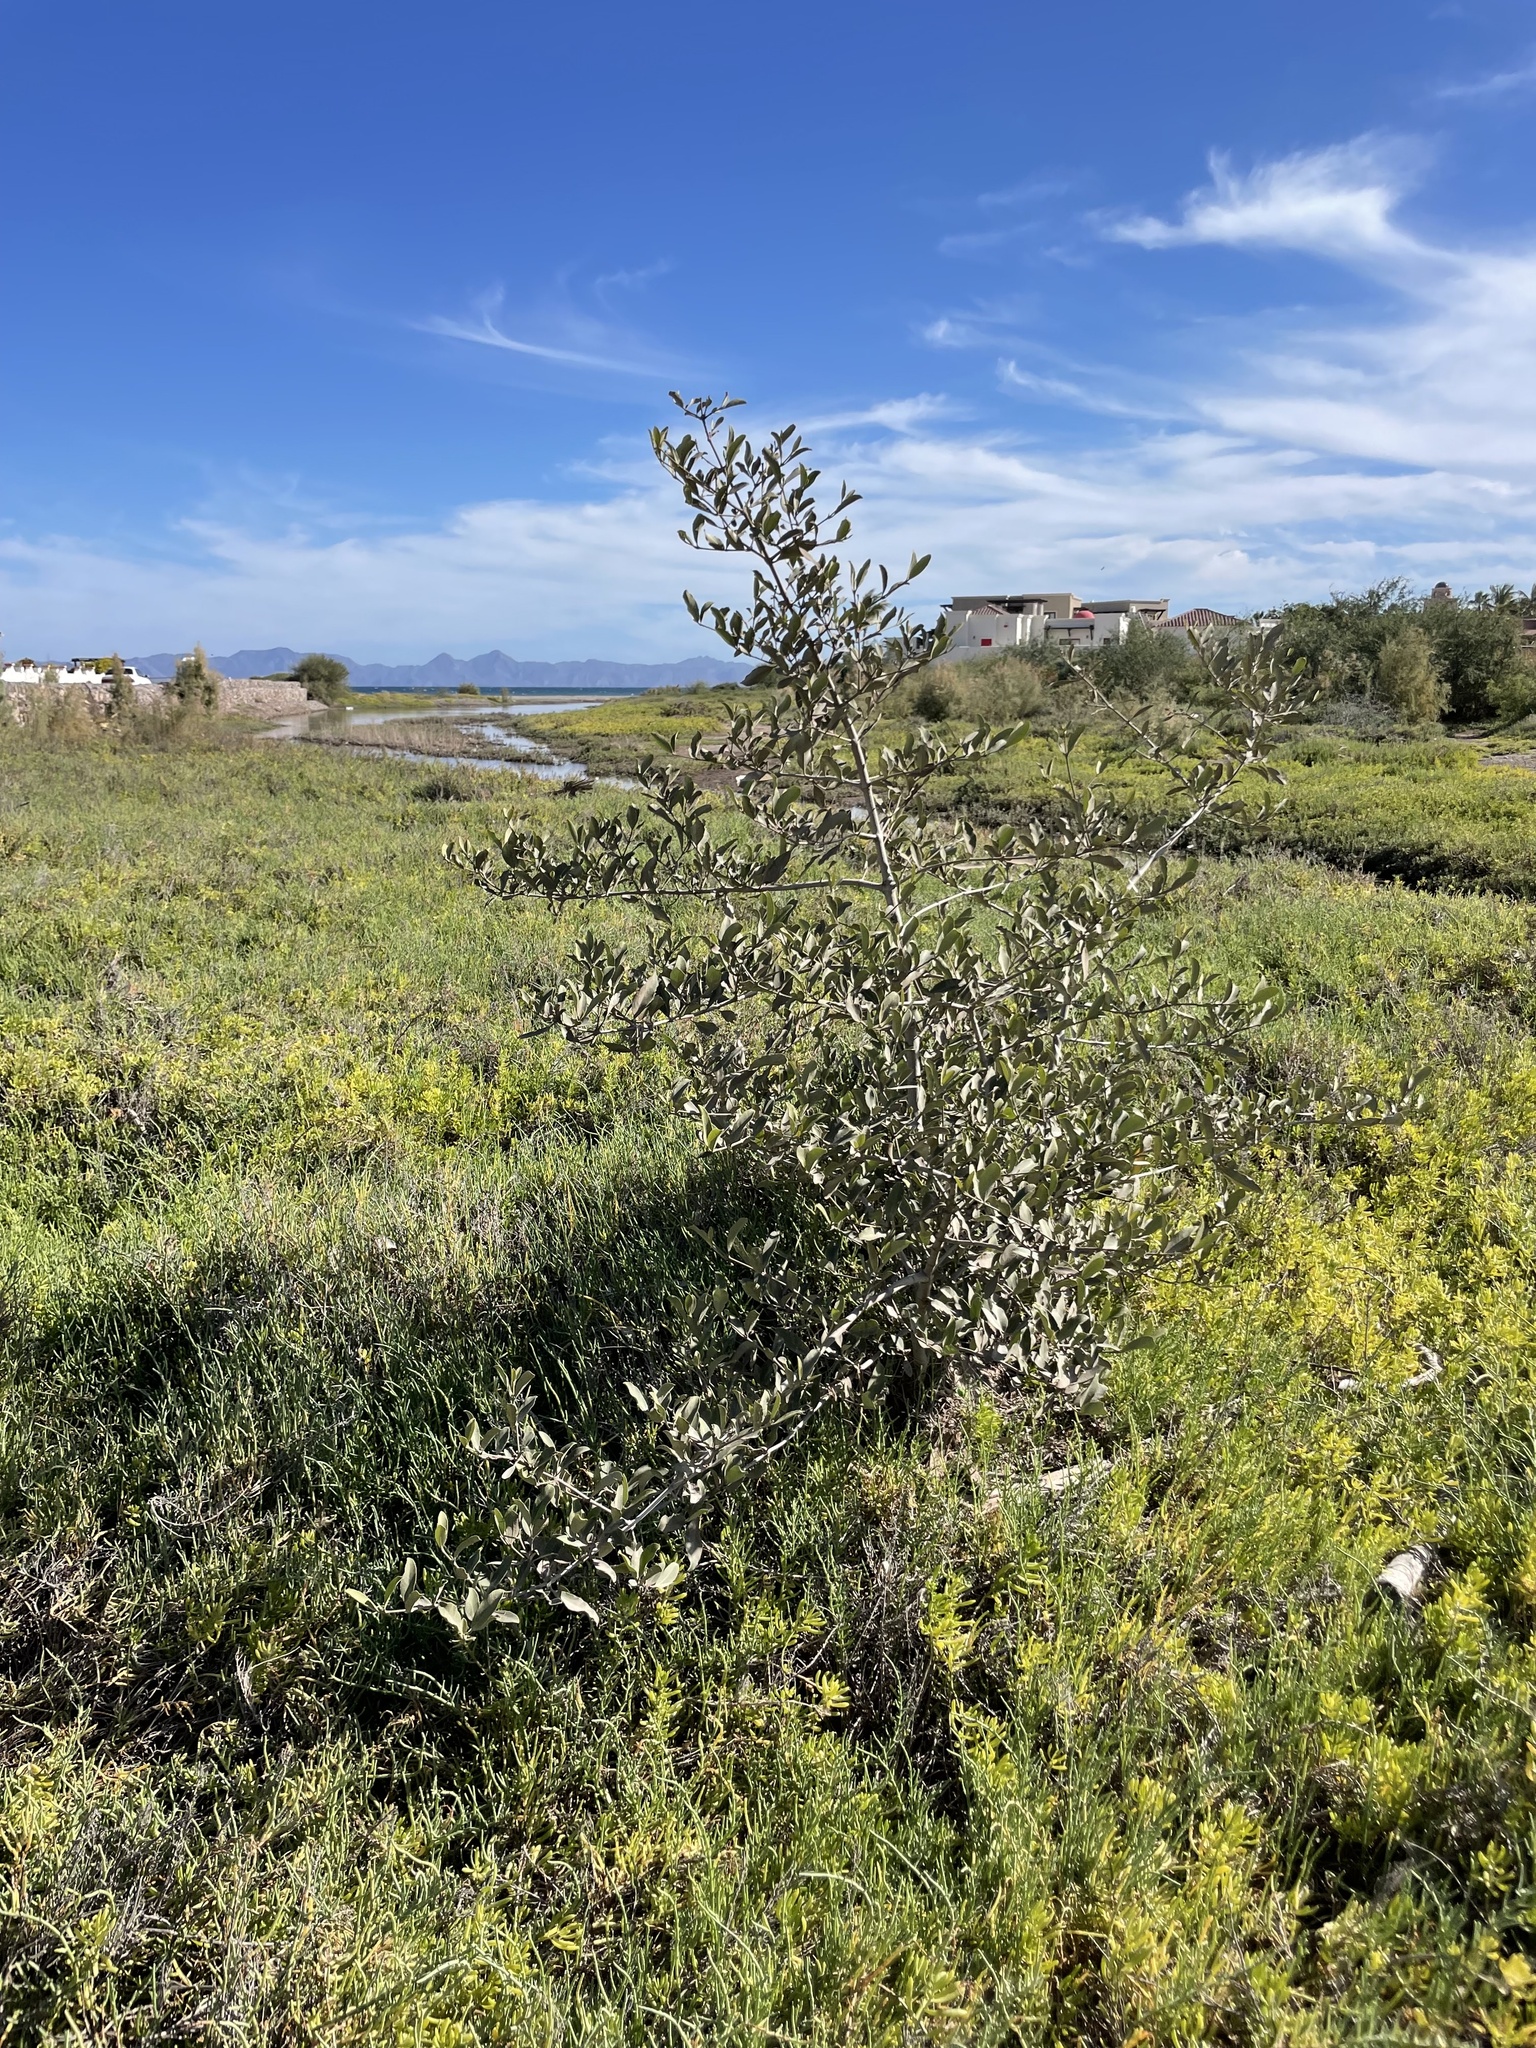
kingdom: Plantae
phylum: Tracheophyta
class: Magnoliopsida
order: Lamiales
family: Acanthaceae
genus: Avicennia
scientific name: Avicennia germinans
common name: Black mangrove
